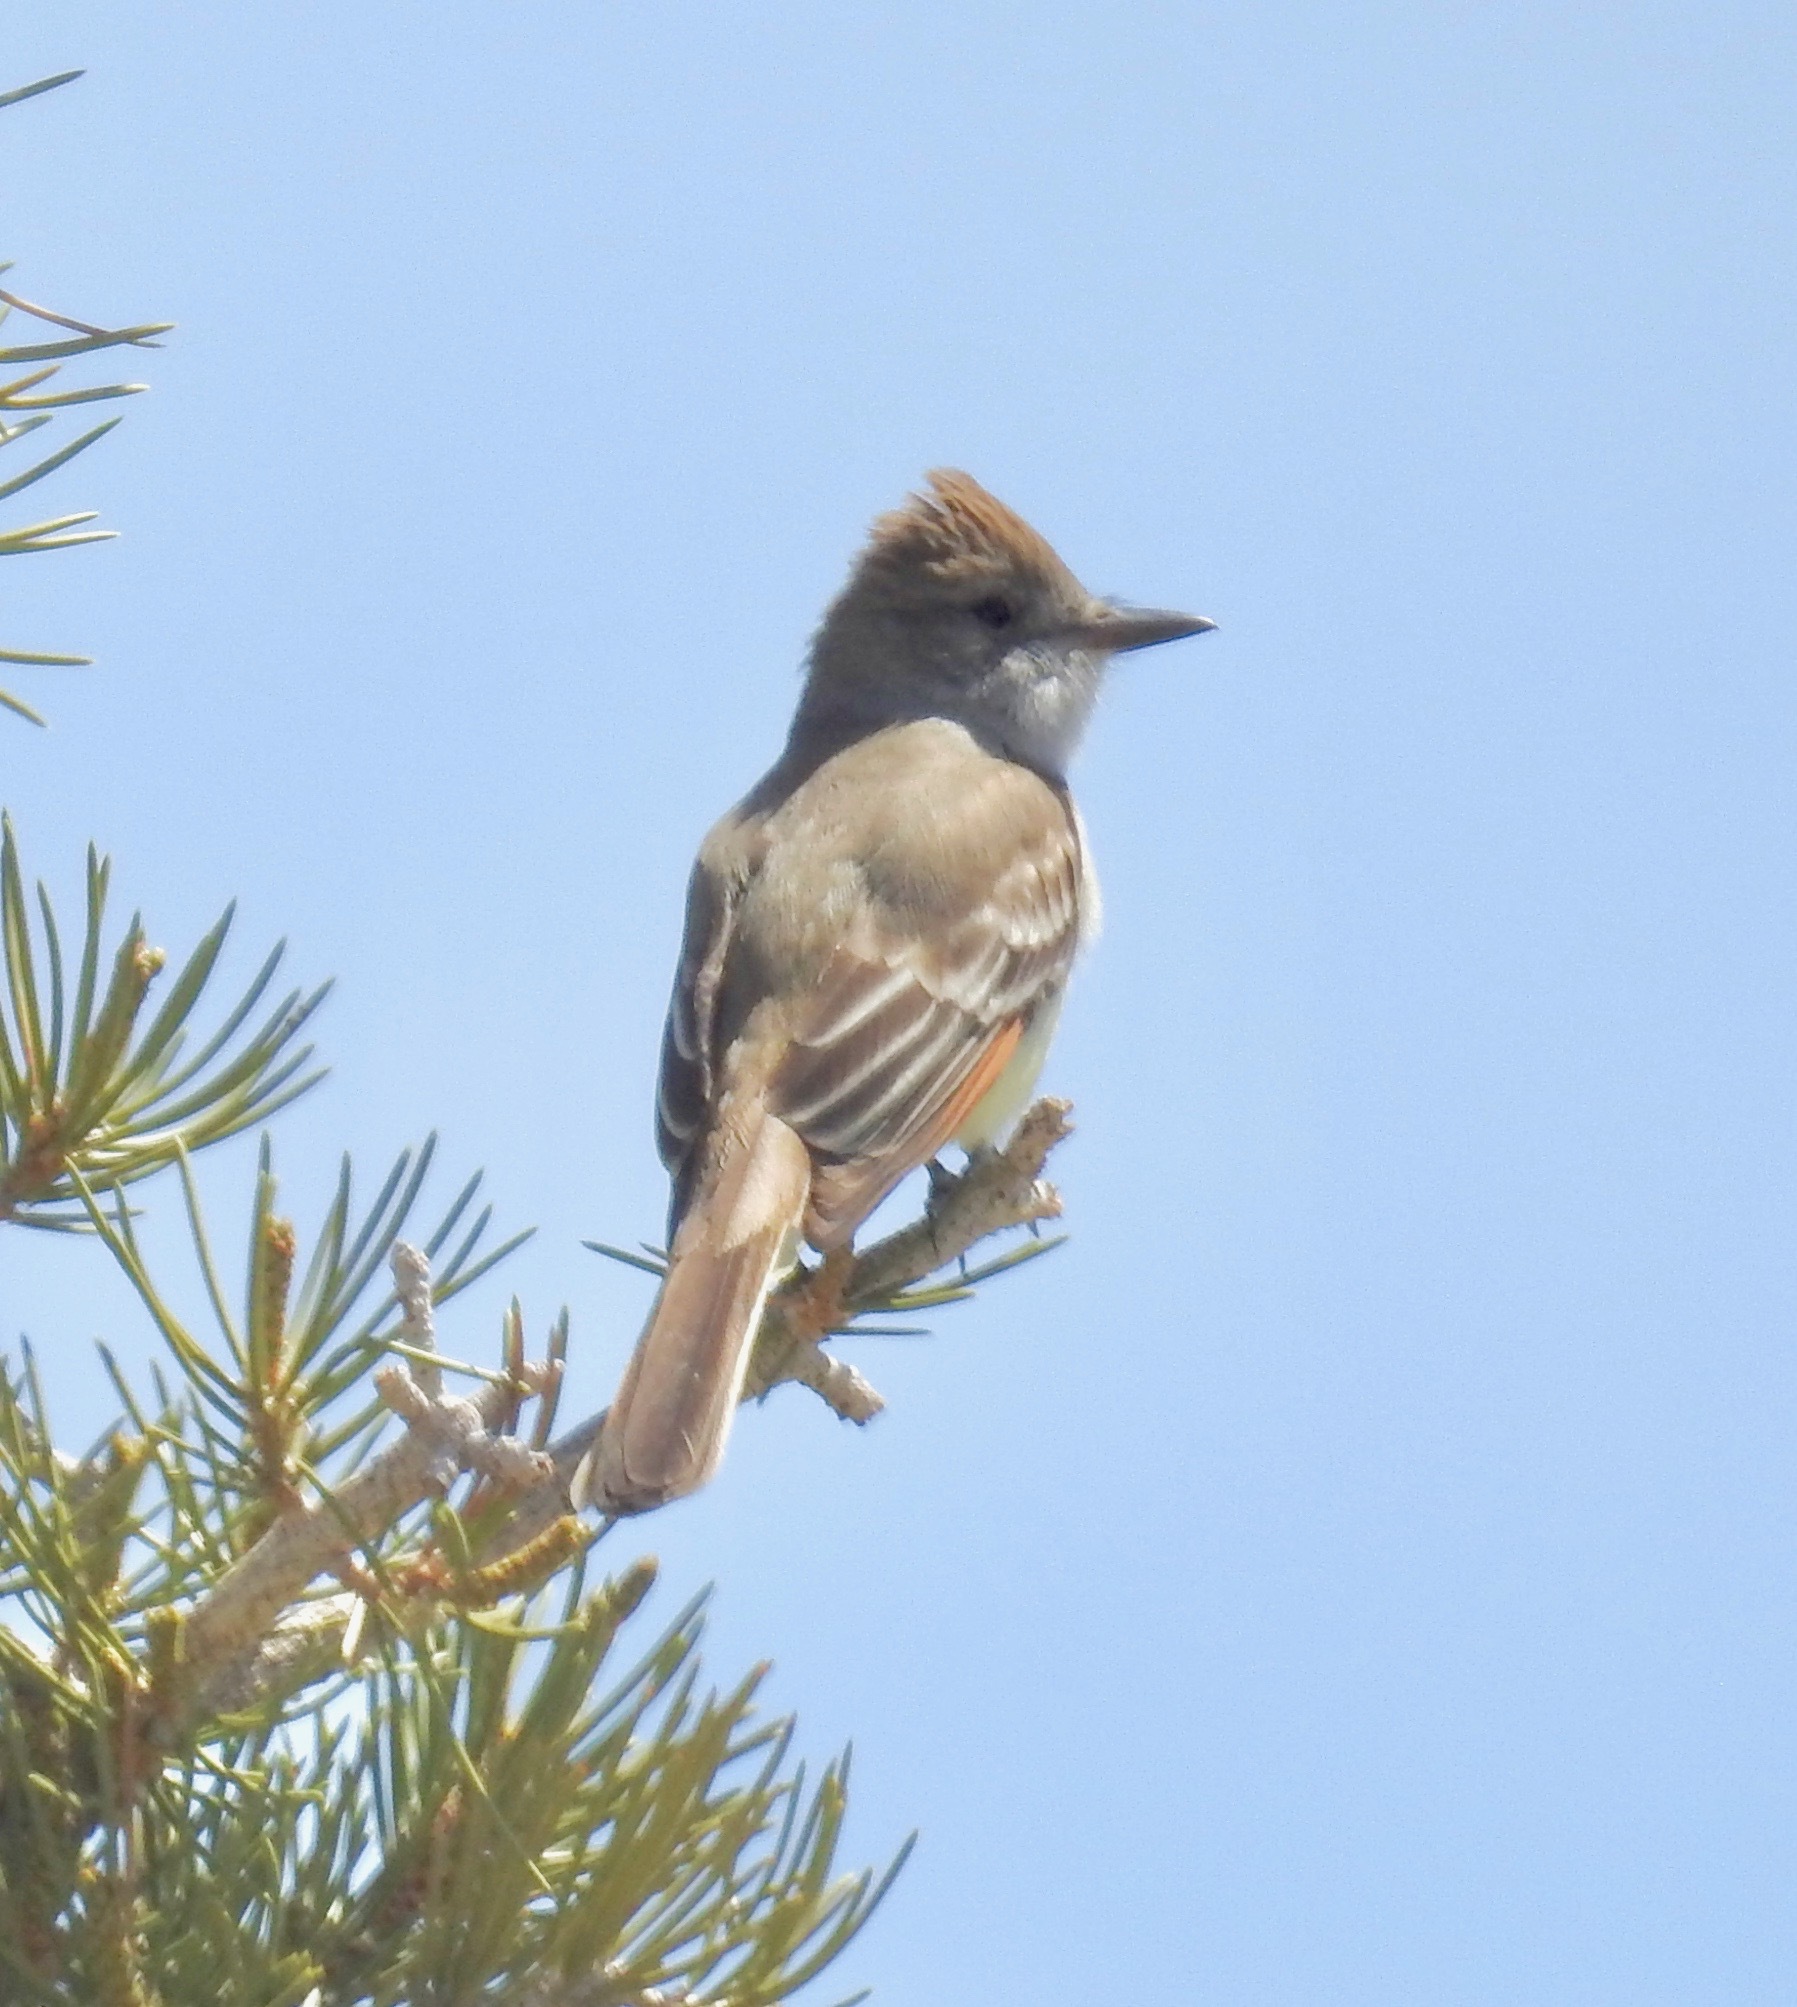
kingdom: Animalia
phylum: Chordata
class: Aves
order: Passeriformes
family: Tyrannidae
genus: Myiarchus
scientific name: Myiarchus cinerascens
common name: Ash-throated flycatcher
